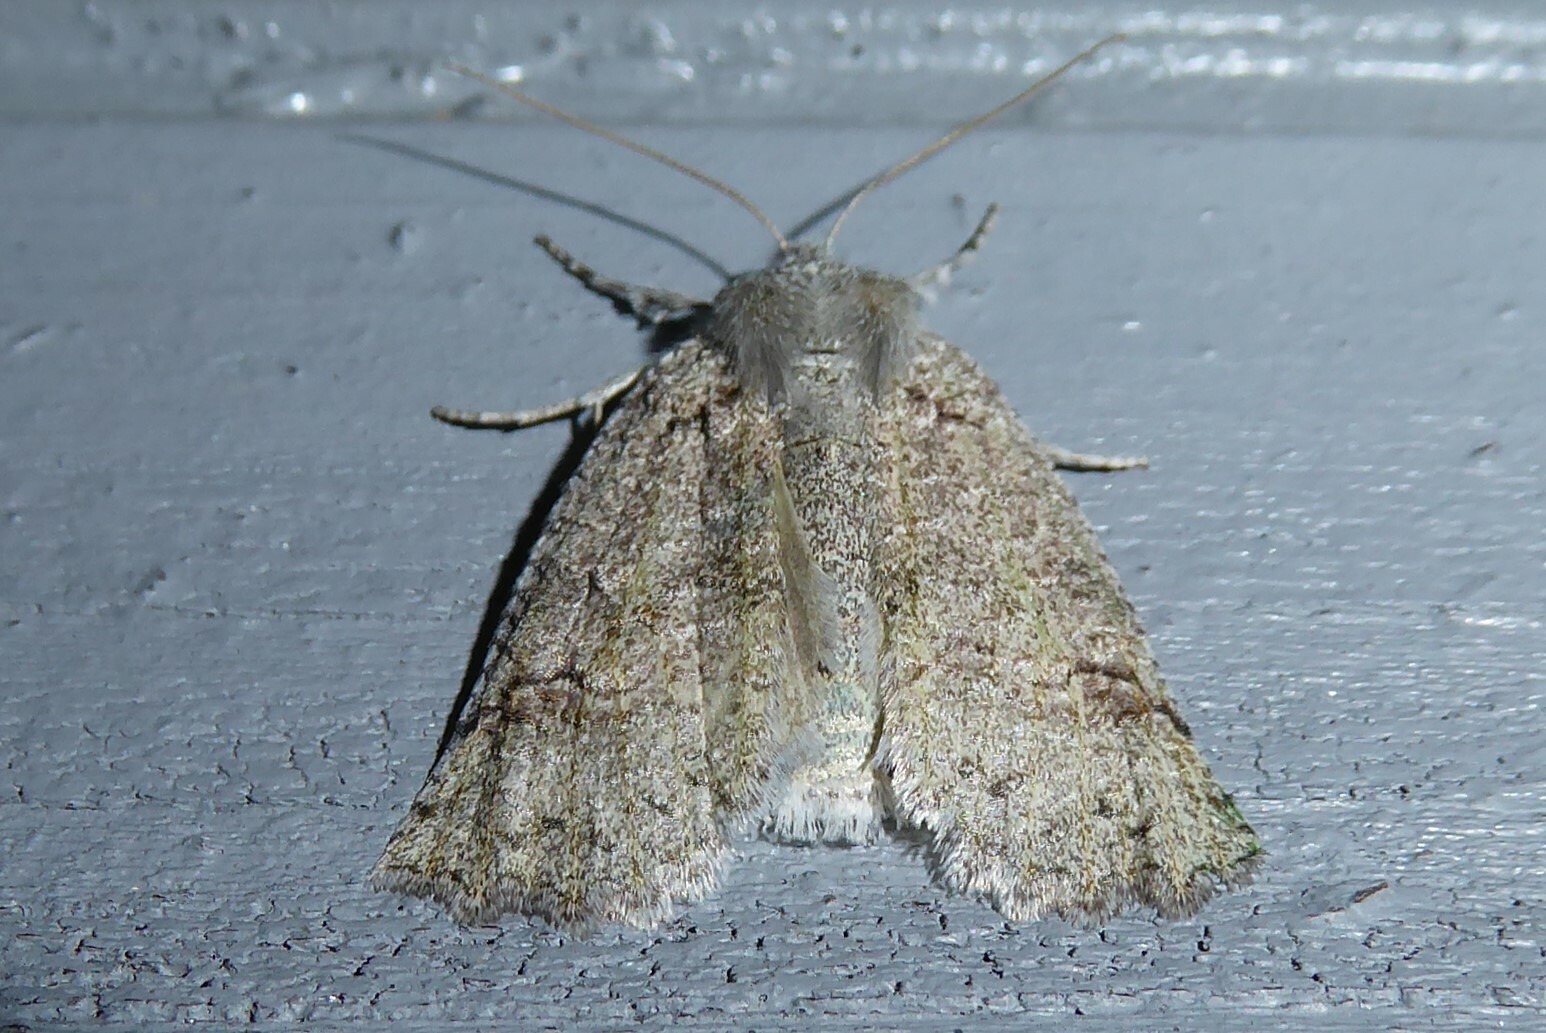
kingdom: Animalia
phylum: Arthropoda
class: Insecta
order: Lepidoptera
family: Geometridae
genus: Declana
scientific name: Declana floccosa
